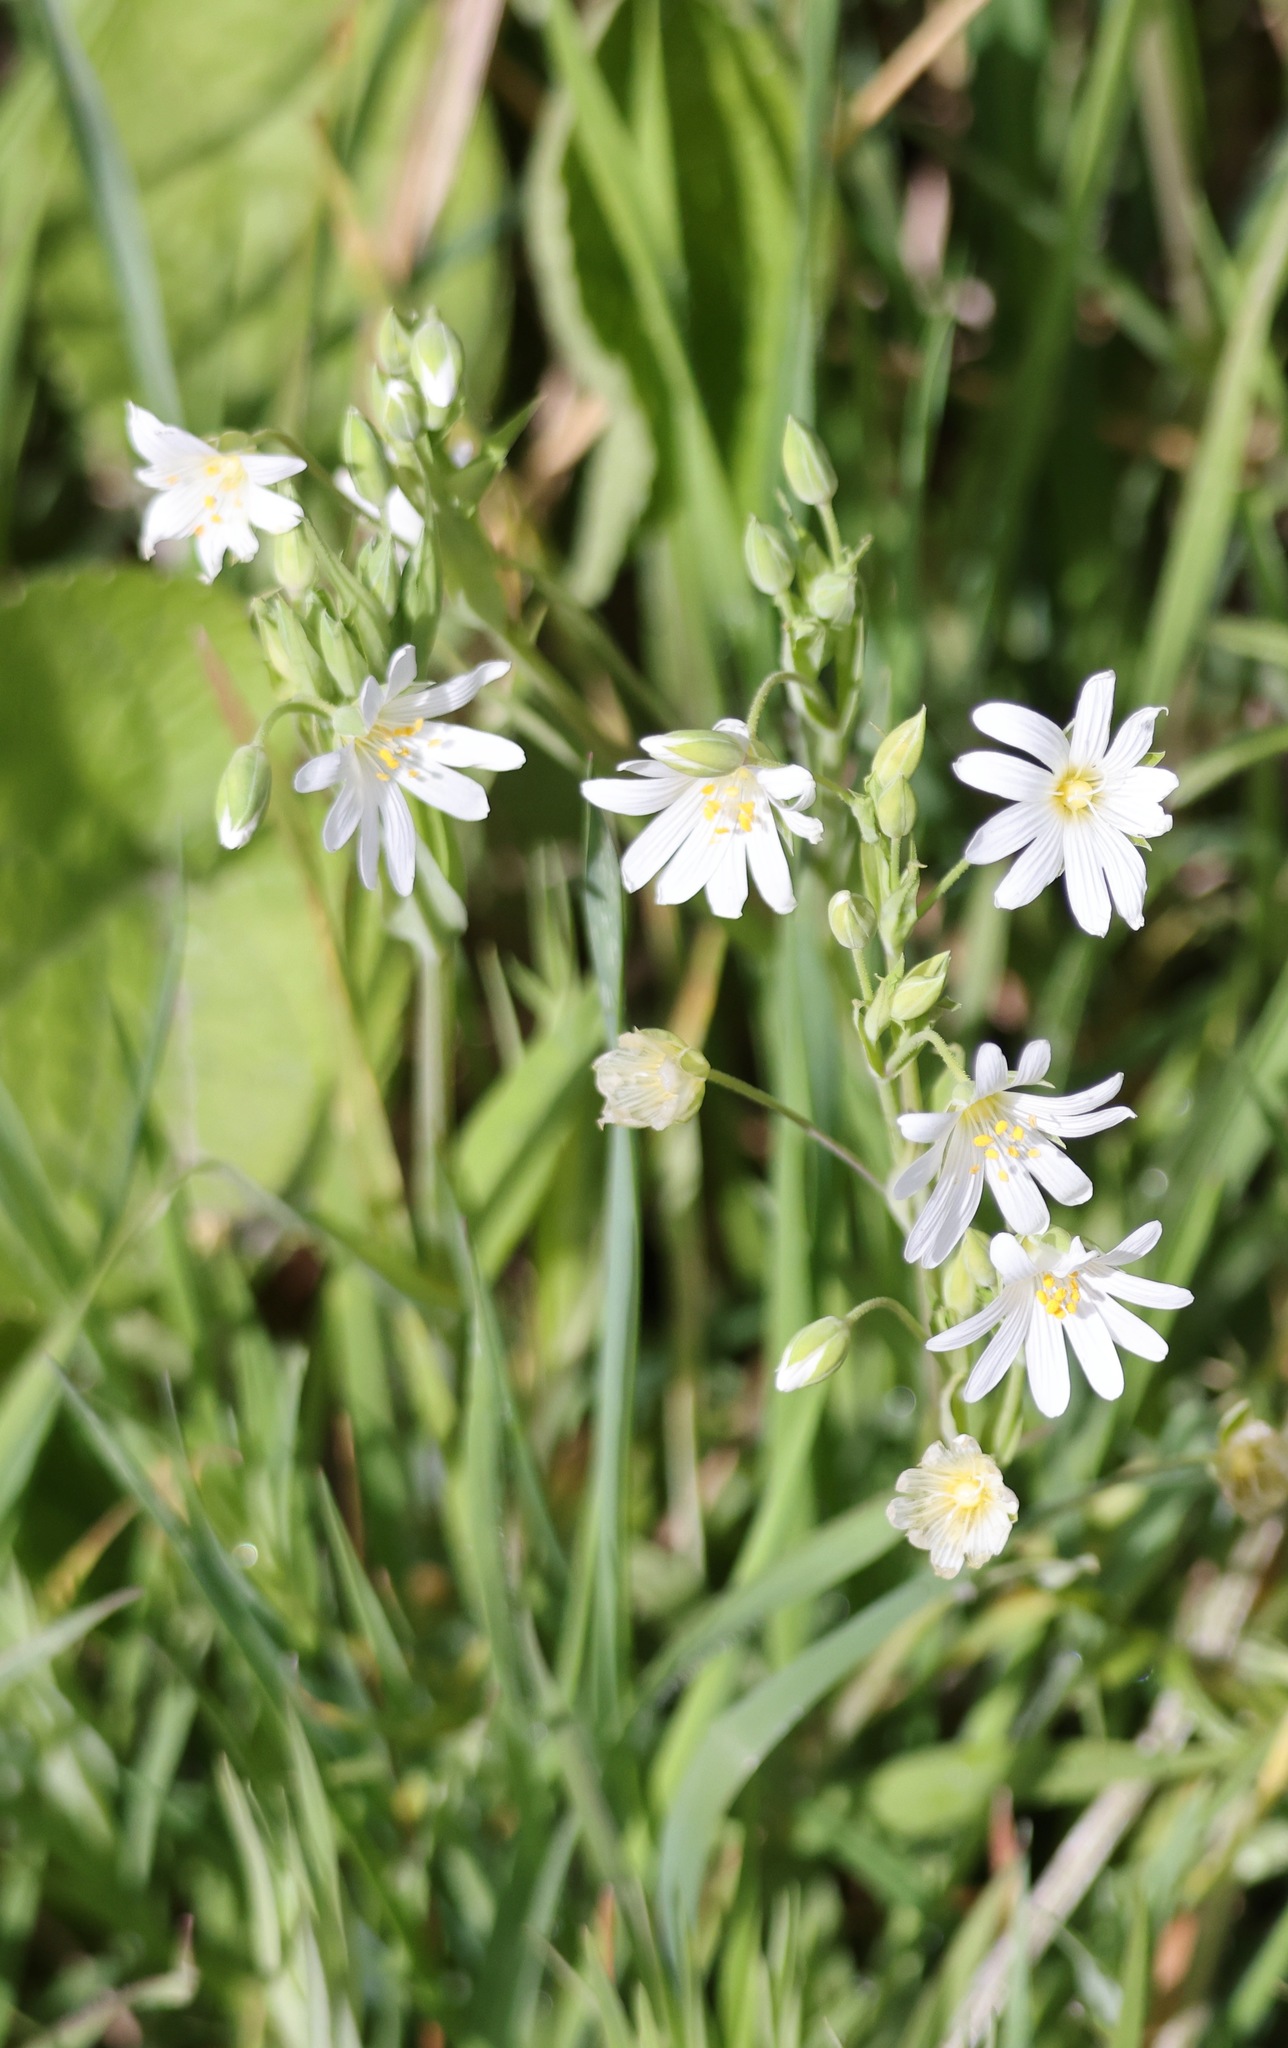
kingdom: Plantae
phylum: Tracheophyta
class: Magnoliopsida
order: Caryophyllales
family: Caryophyllaceae
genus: Rabelera
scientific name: Rabelera holostea
